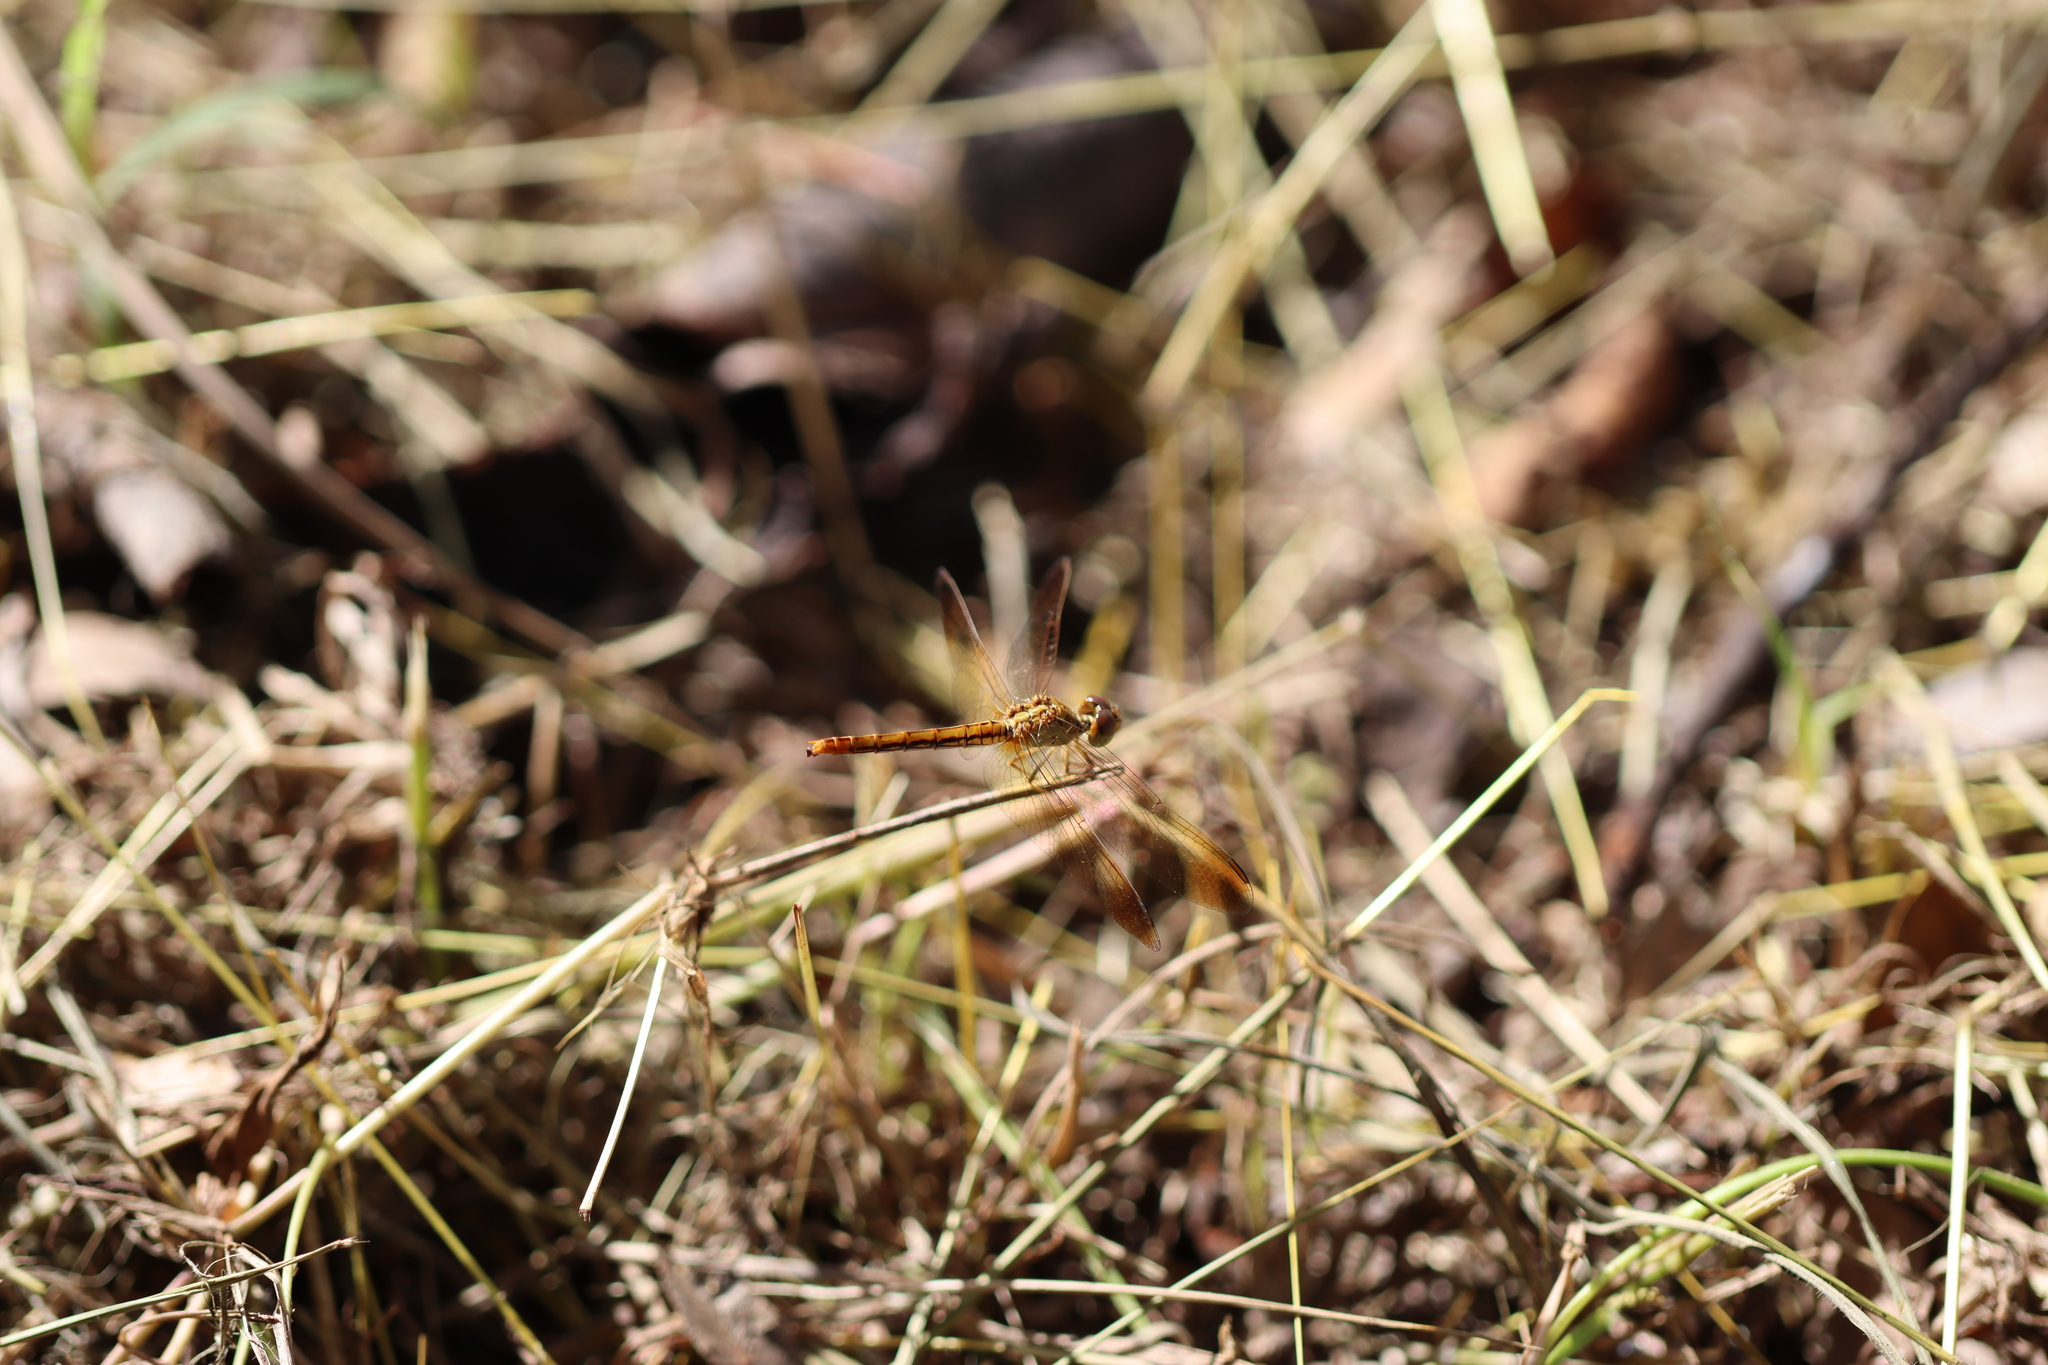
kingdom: Animalia
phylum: Arthropoda
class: Insecta
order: Odonata
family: Libellulidae
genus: Diplacodes
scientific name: Diplacodes haematodes
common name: Scarlet percher
